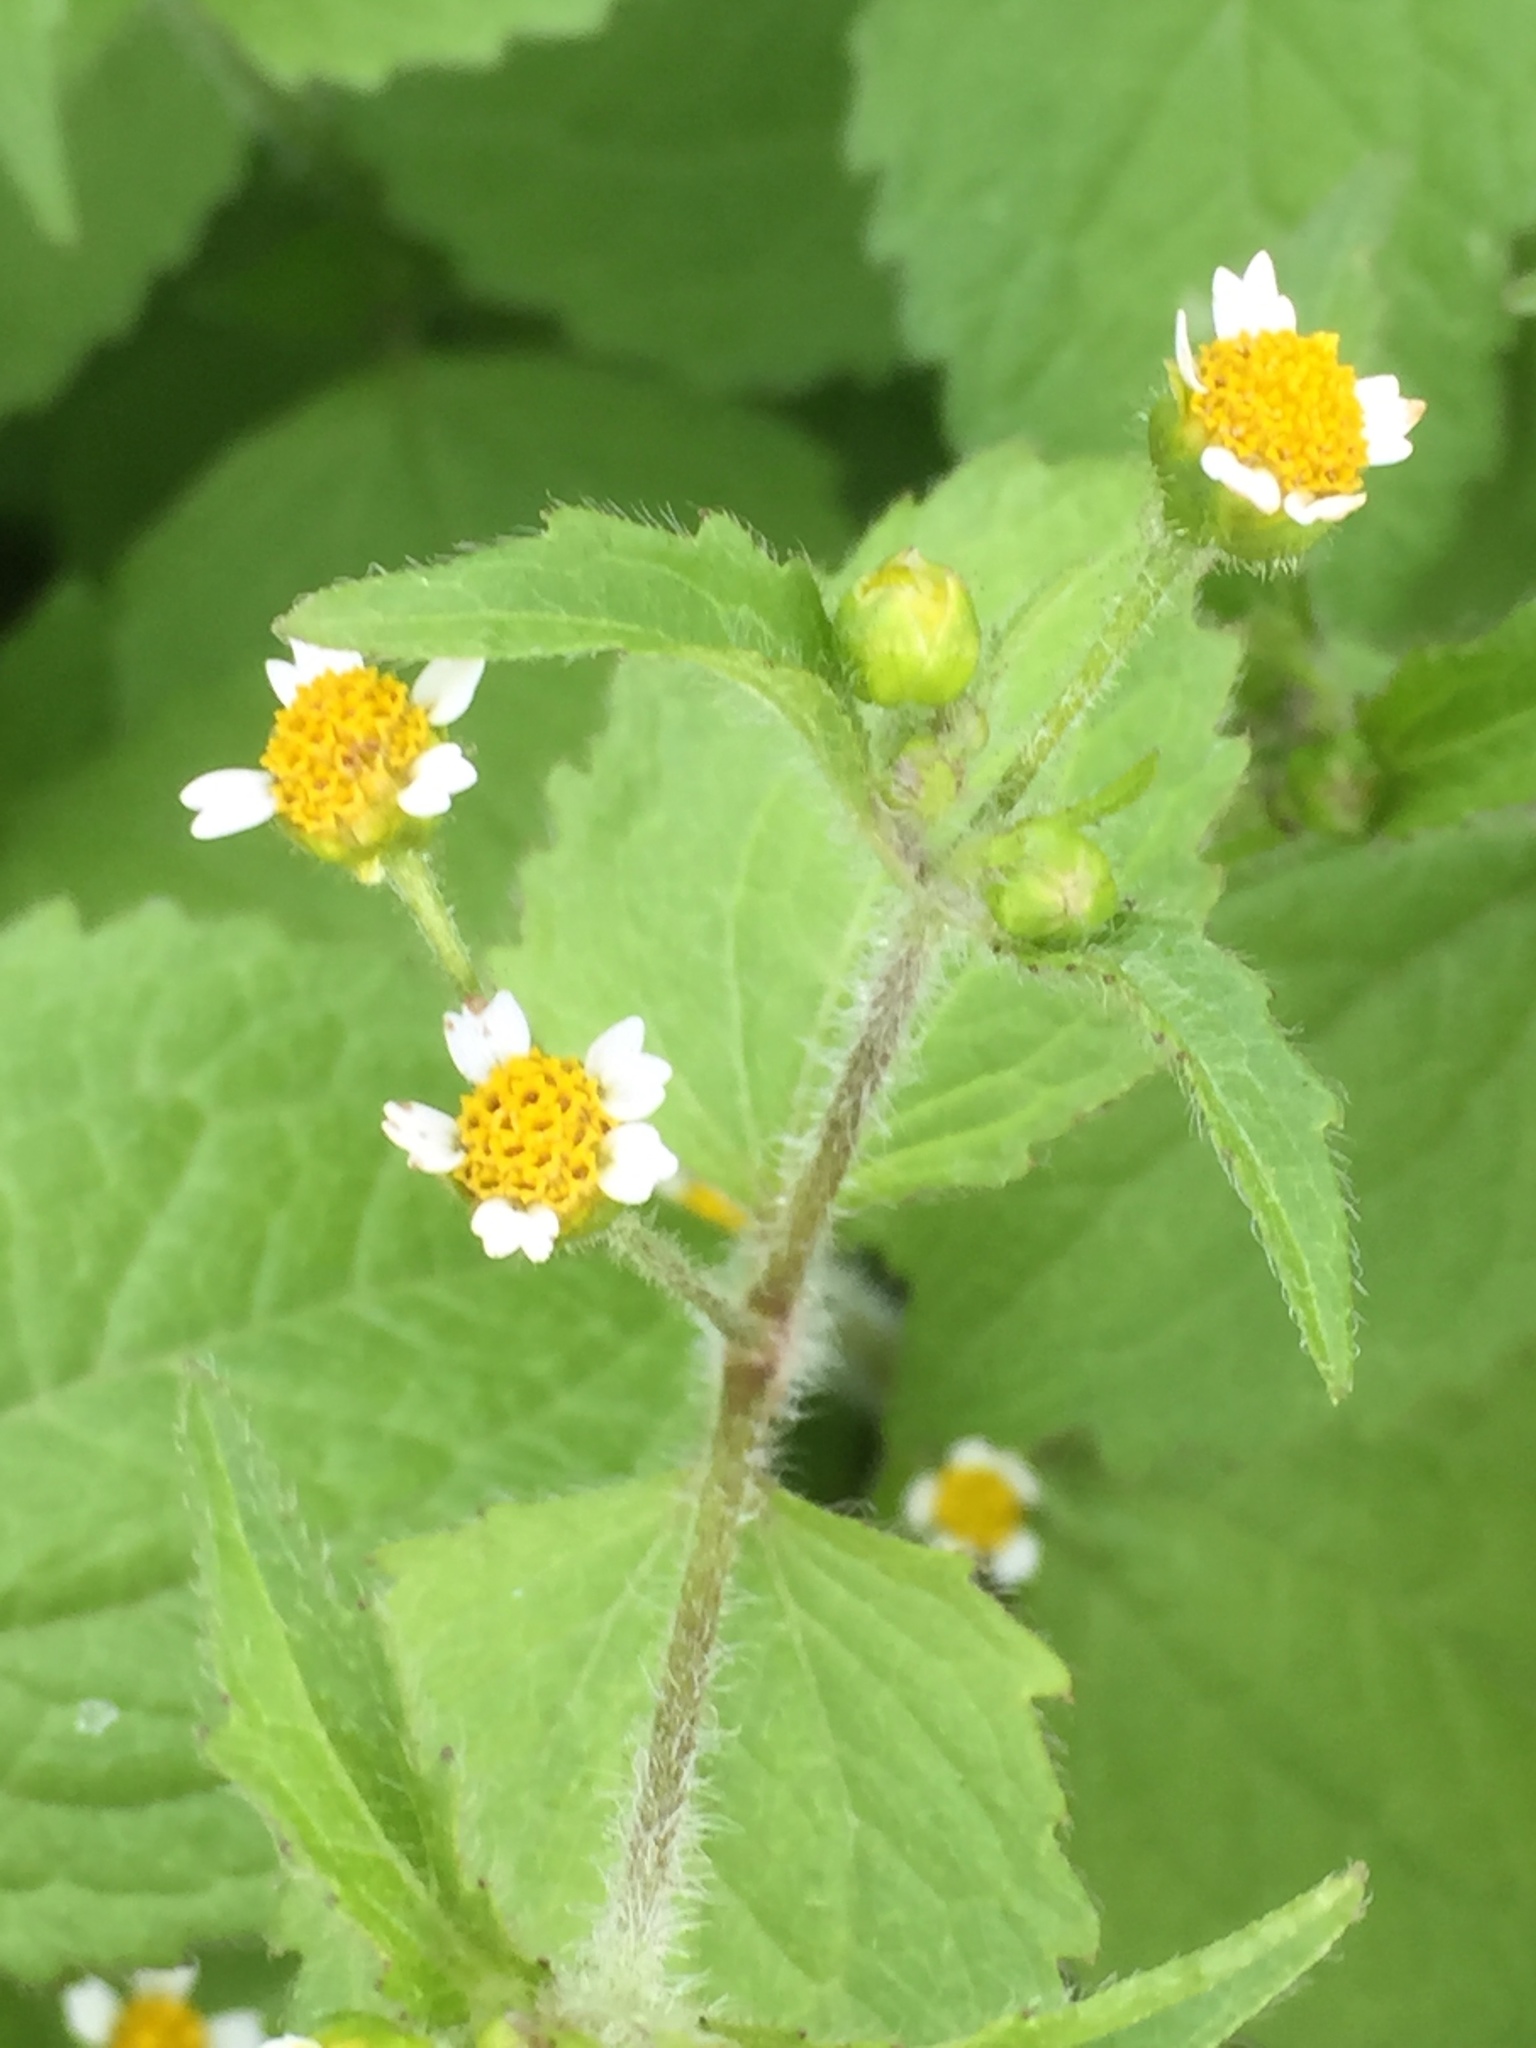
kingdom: Plantae
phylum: Tracheophyta
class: Magnoliopsida
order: Asterales
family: Asteraceae
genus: Galinsoga
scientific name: Galinsoga quadriradiata
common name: Shaggy soldier
